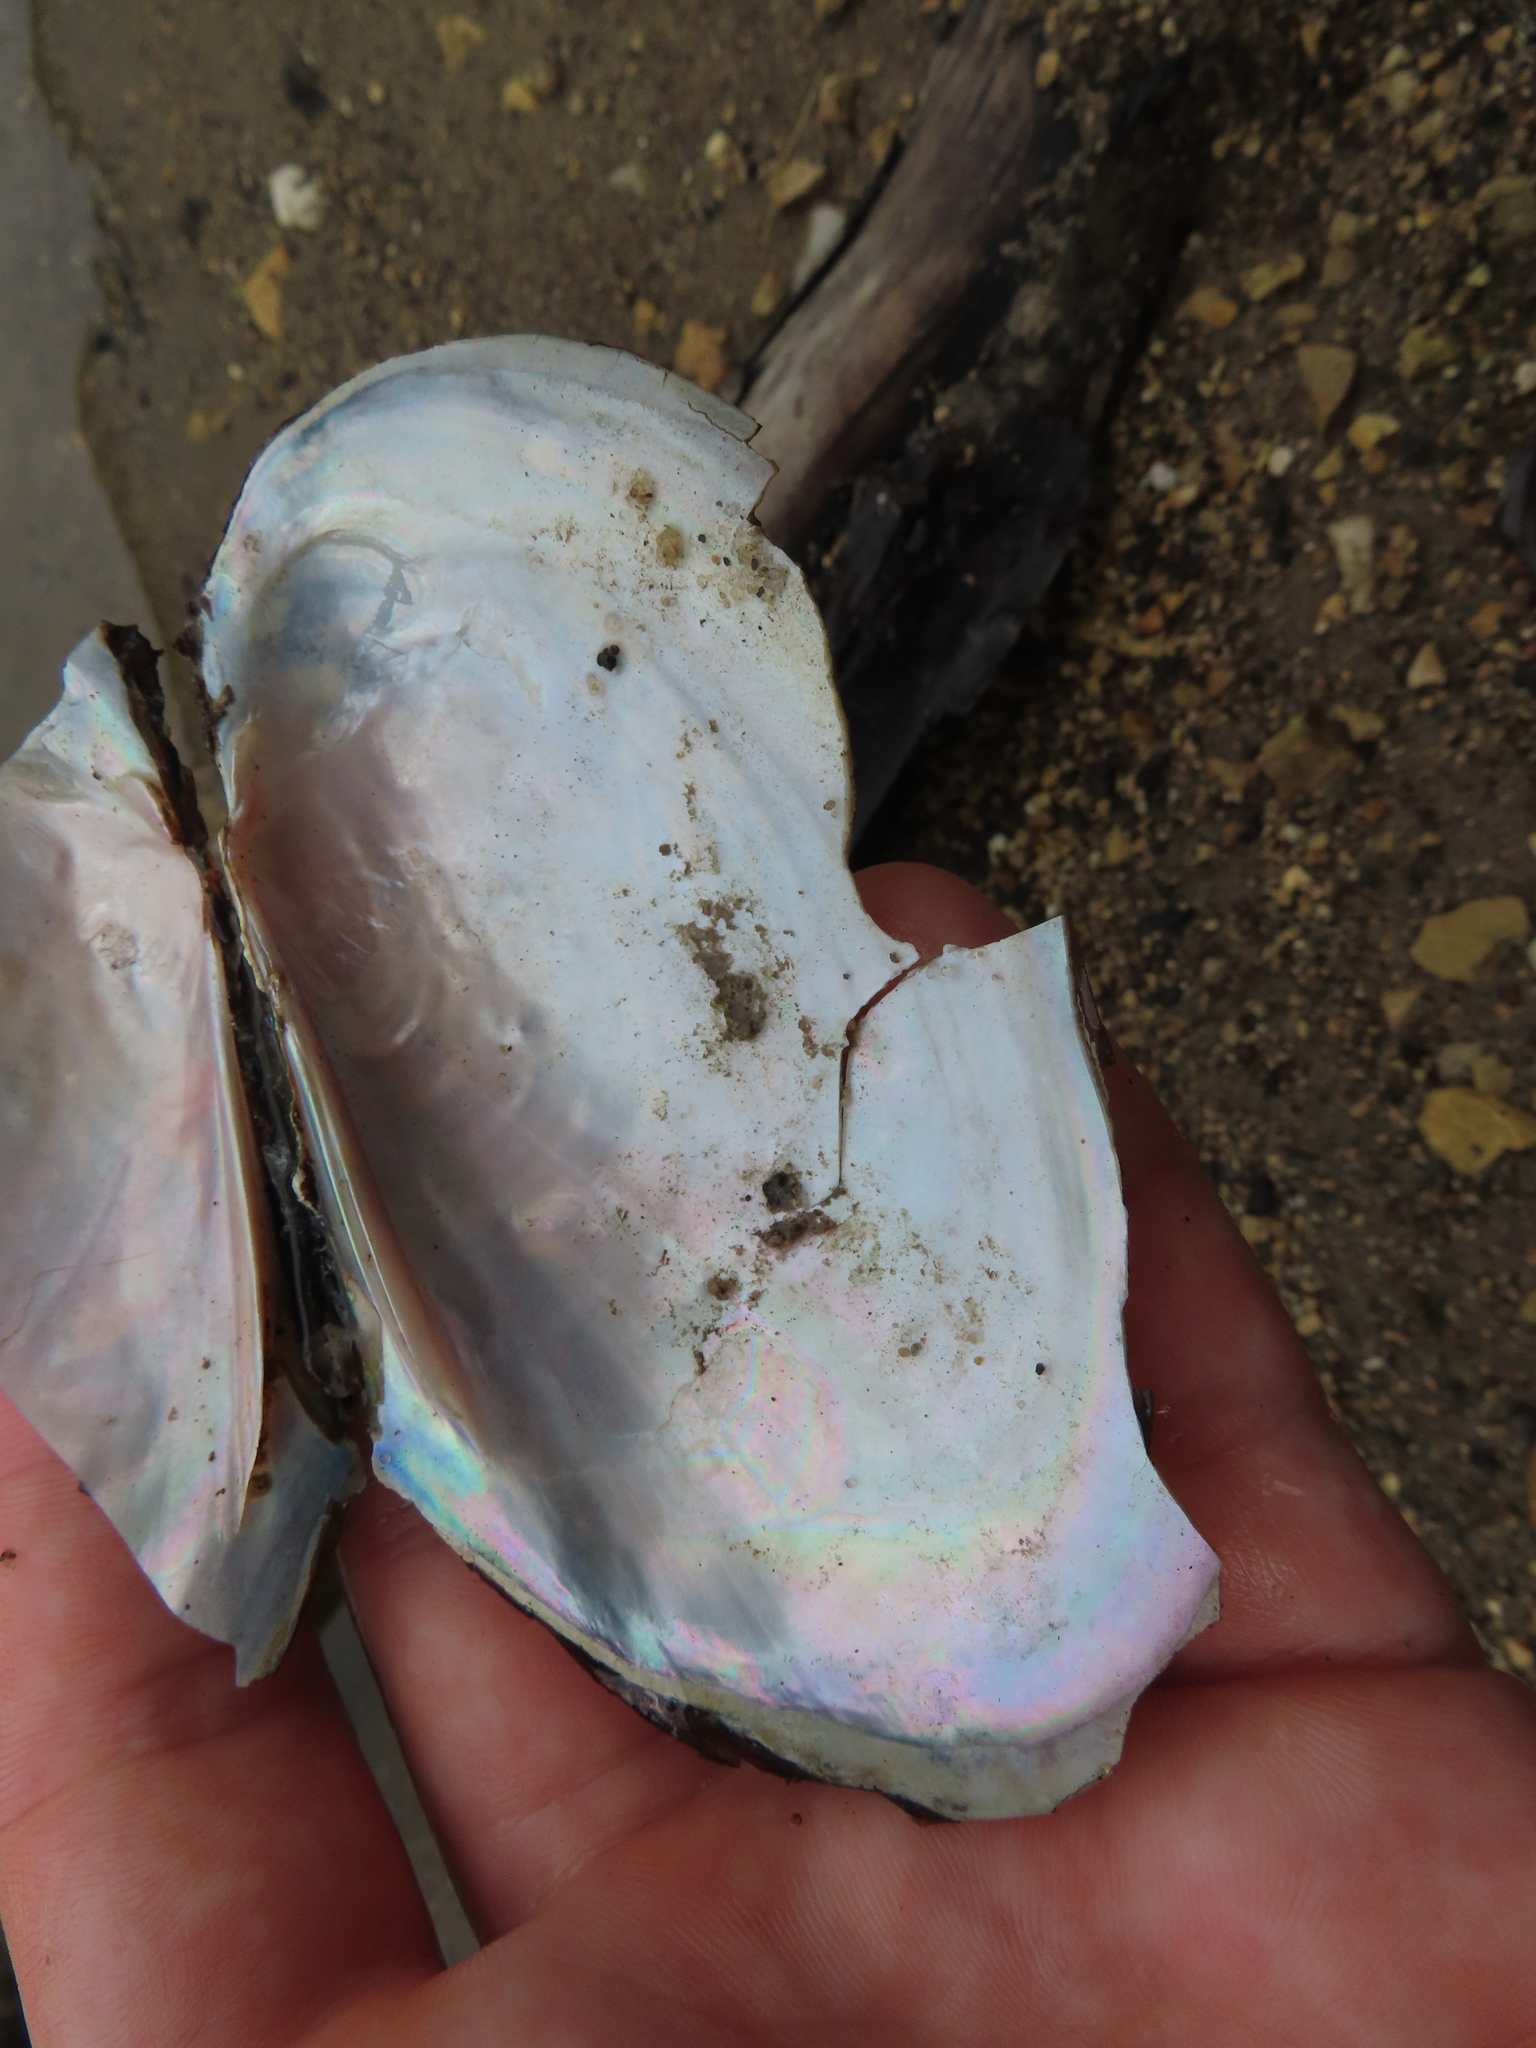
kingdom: Animalia
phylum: Mollusca
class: Bivalvia
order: Unionida
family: Unionidae
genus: Potamilus
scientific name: Potamilus fragilis
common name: Fragile papershell
